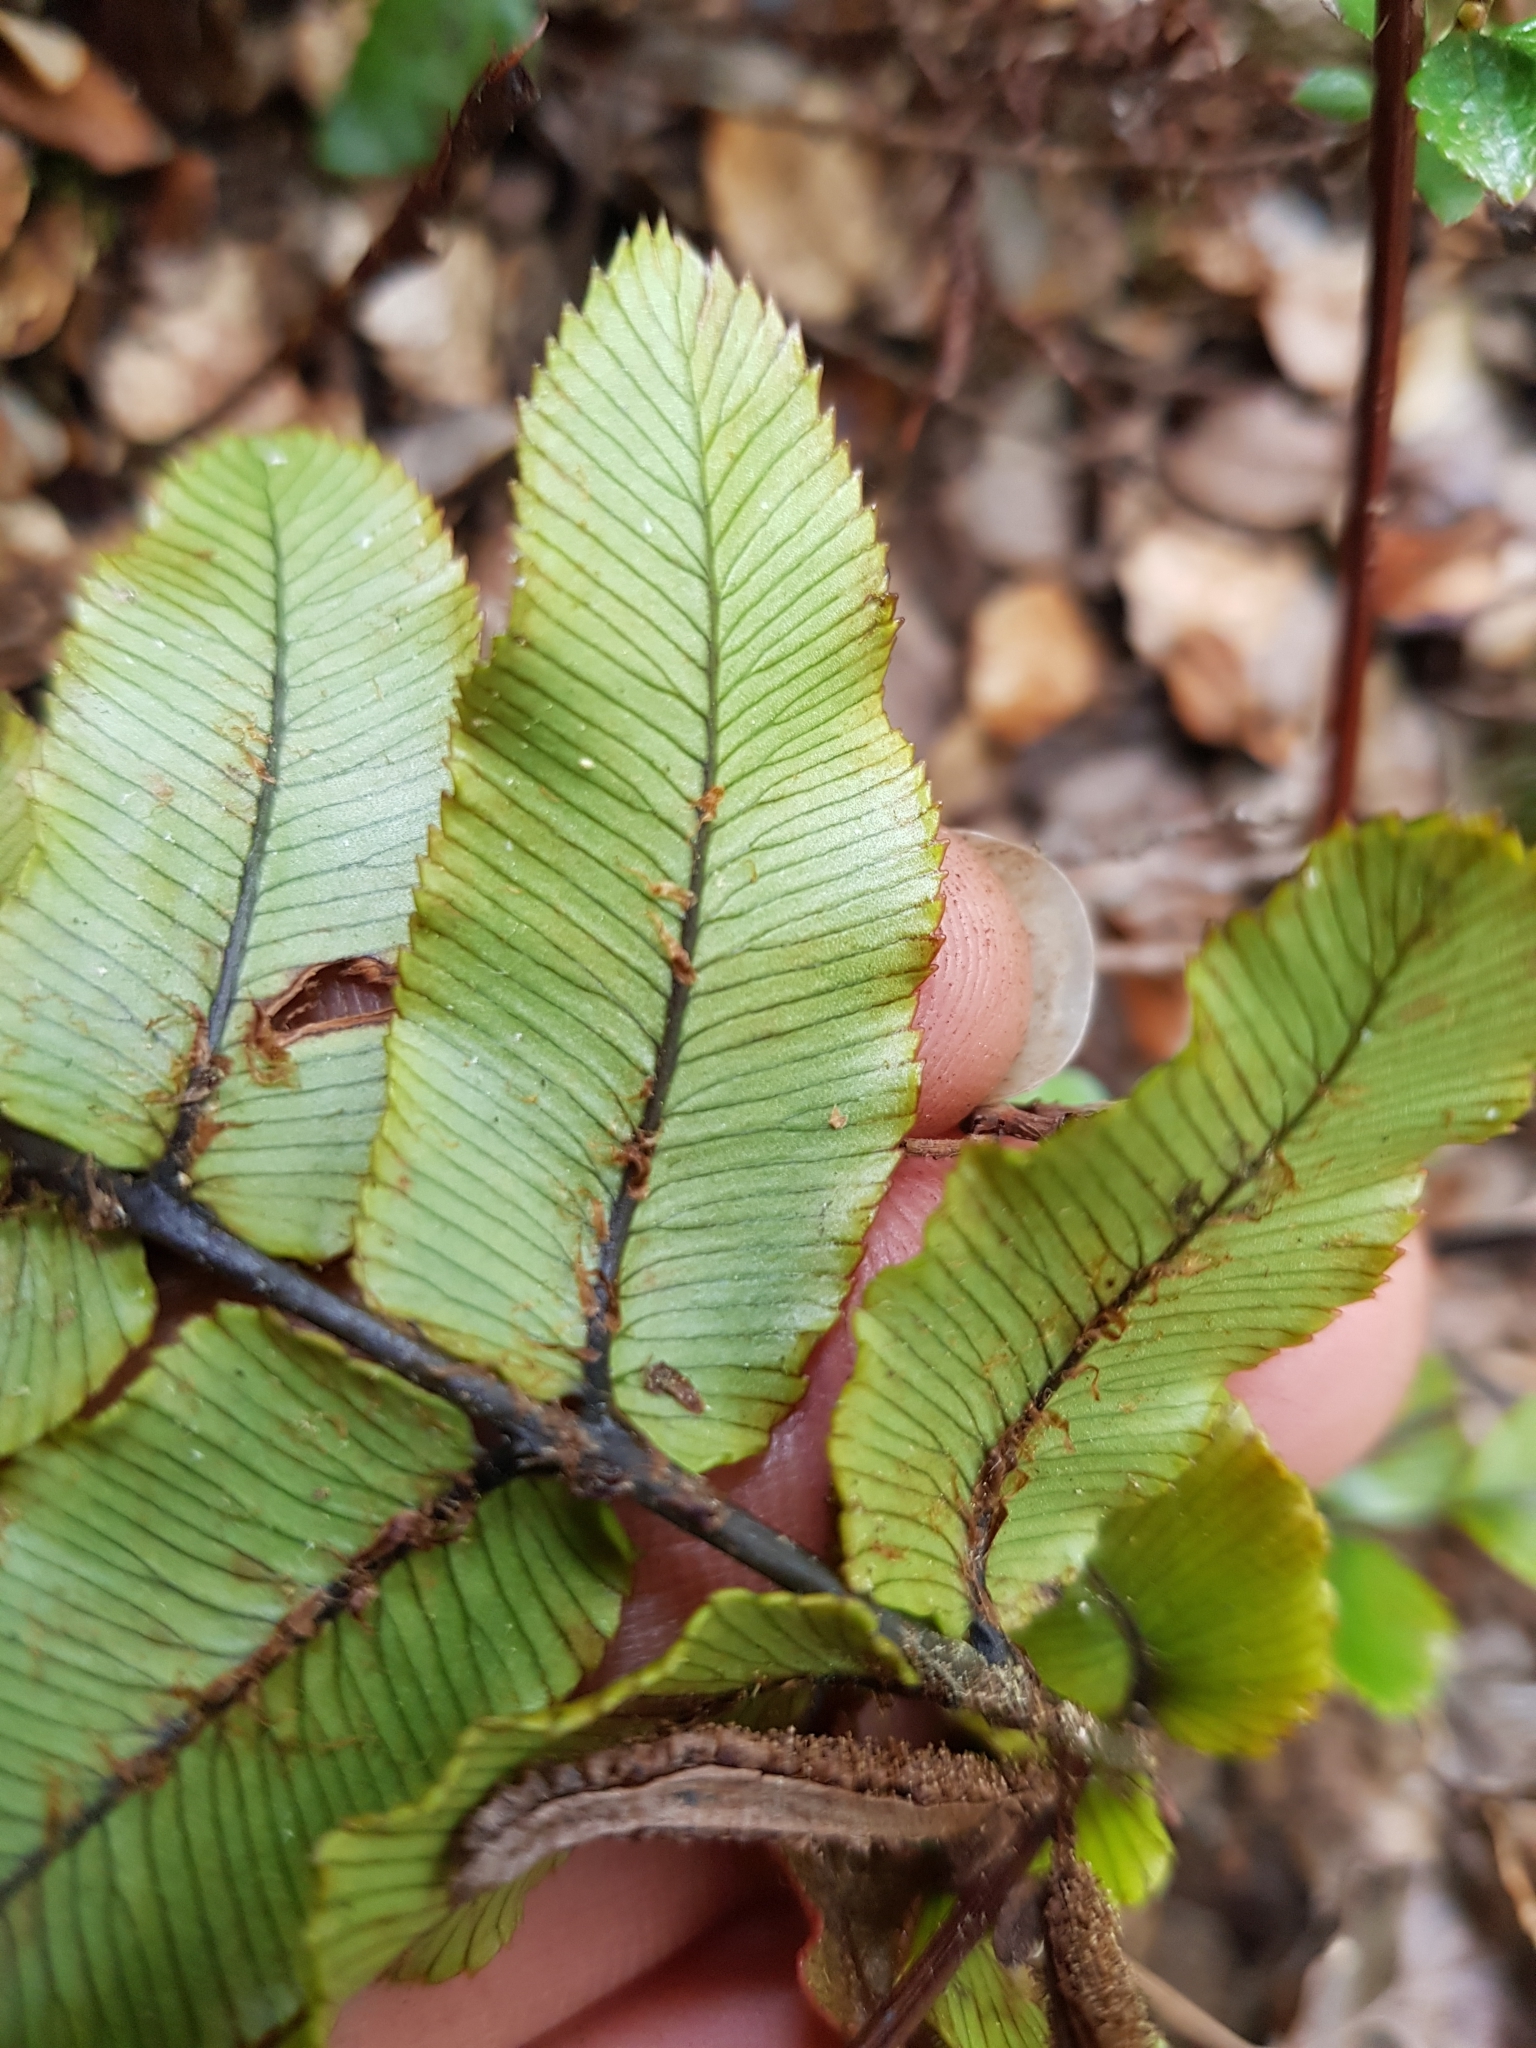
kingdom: Plantae
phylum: Tracheophyta
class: Polypodiopsida
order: Polypodiales
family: Blechnaceae
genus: Parablechnum
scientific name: Parablechnum procerum
